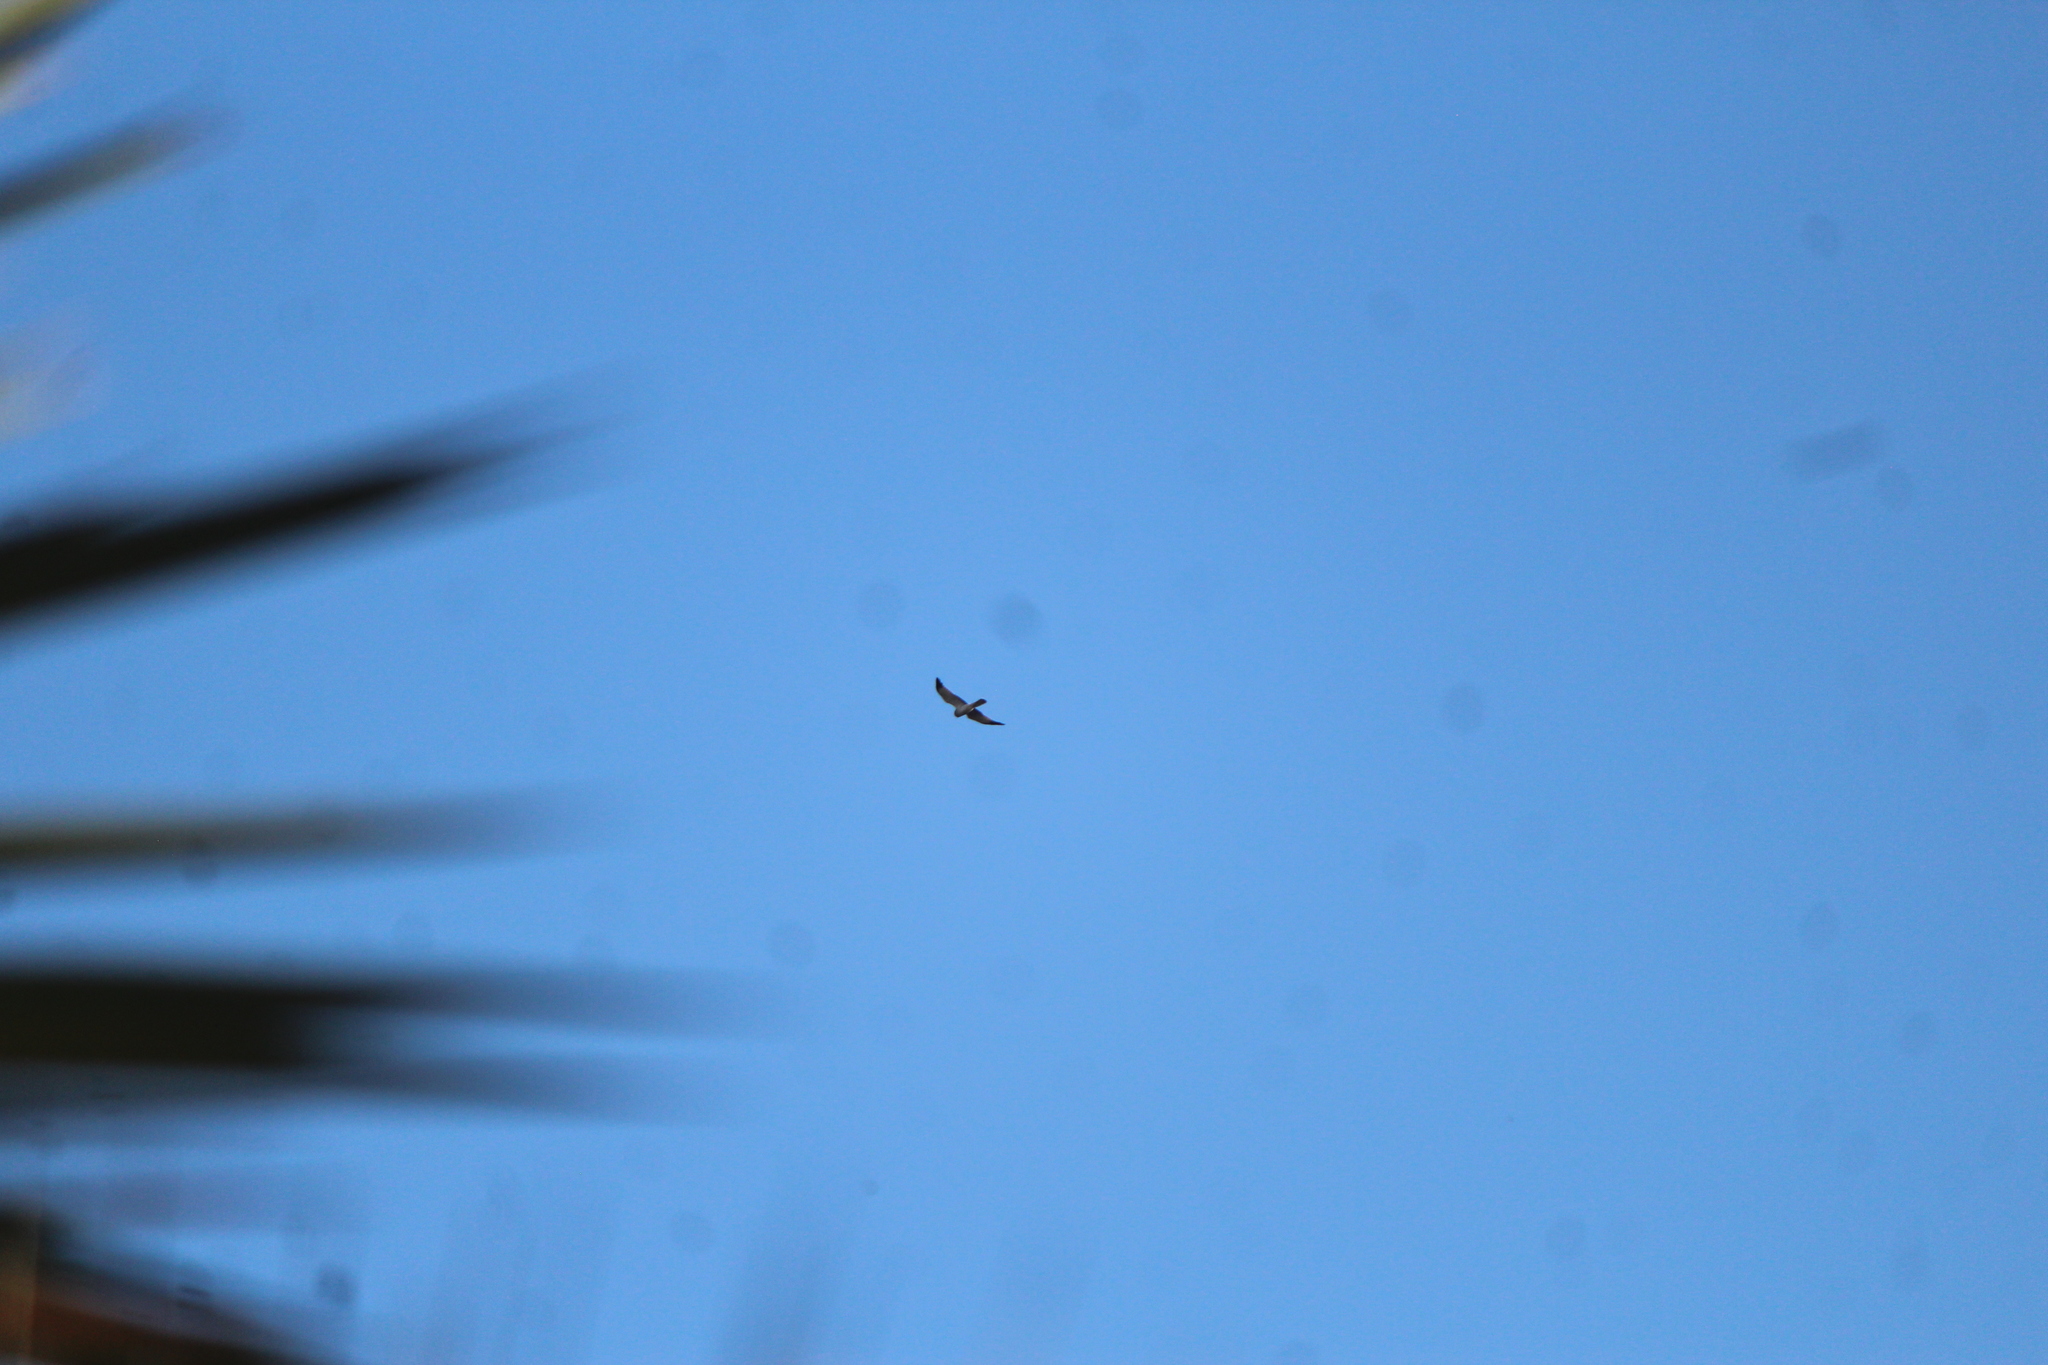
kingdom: Animalia
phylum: Chordata
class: Aves
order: Accipitriformes
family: Accipitridae
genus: Circus
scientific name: Circus cyaneus
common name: Hen harrier
